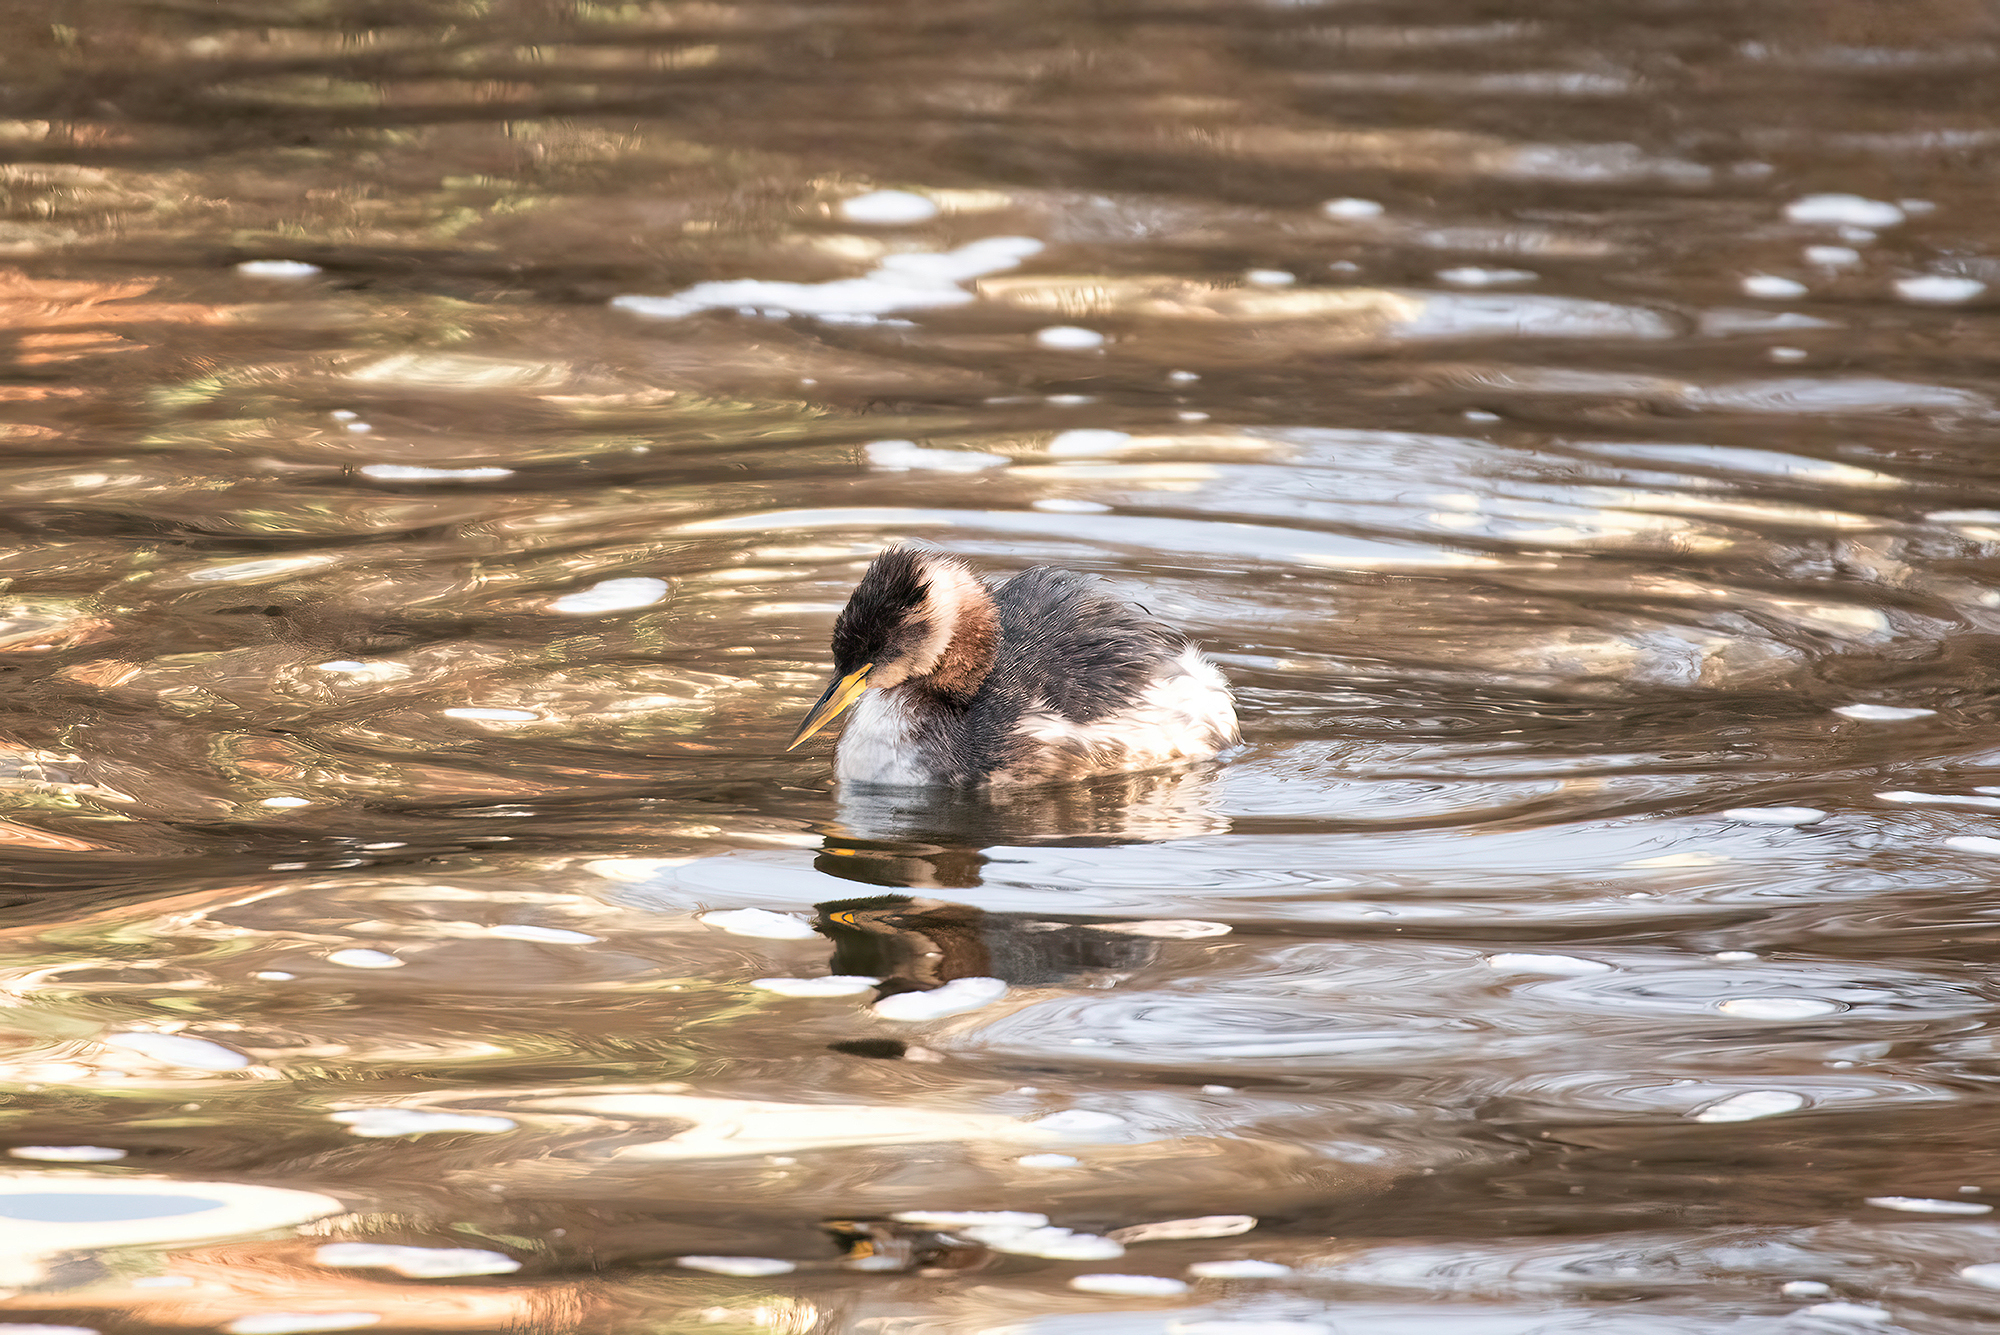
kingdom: Animalia
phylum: Chordata
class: Aves
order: Podicipediformes
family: Podicipedidae
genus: Podiceps
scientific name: Podiceps grisegena
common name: Red-necked grebe
